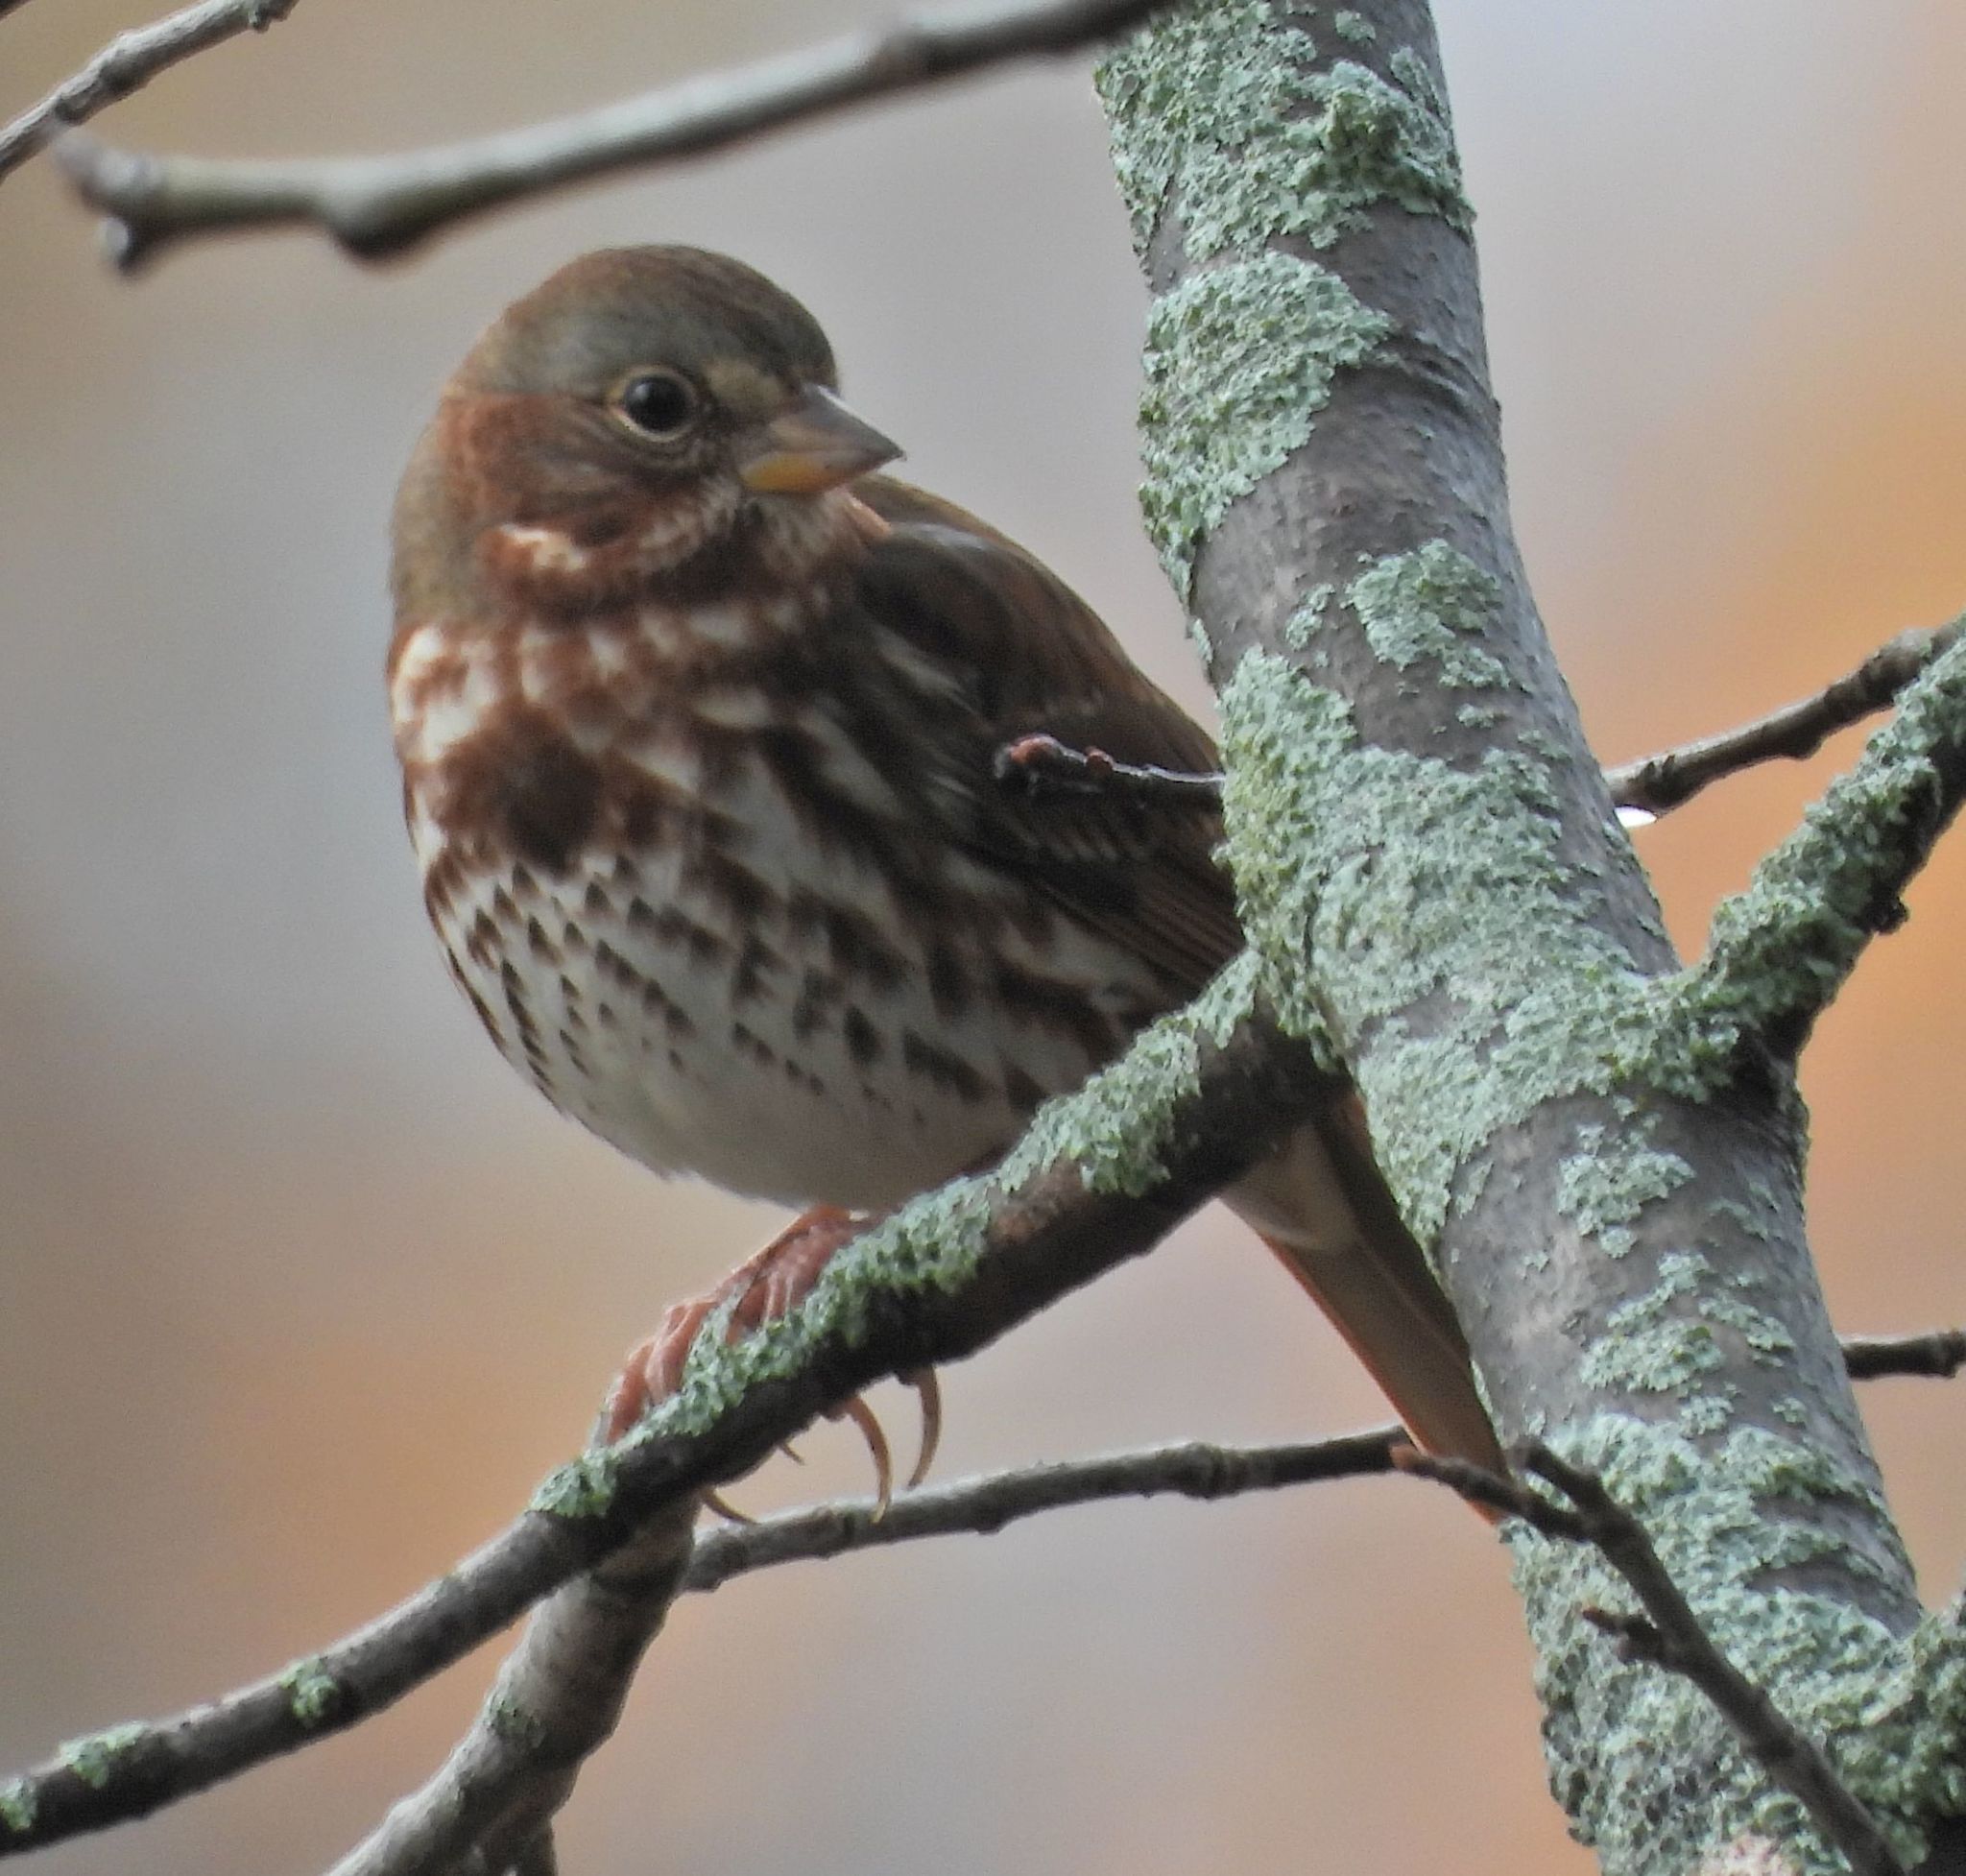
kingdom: Animalia
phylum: Chordata
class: Aves
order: Passeriformes
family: Passerellidae
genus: Passerella
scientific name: Passerella iliaca
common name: Fox sparrow
